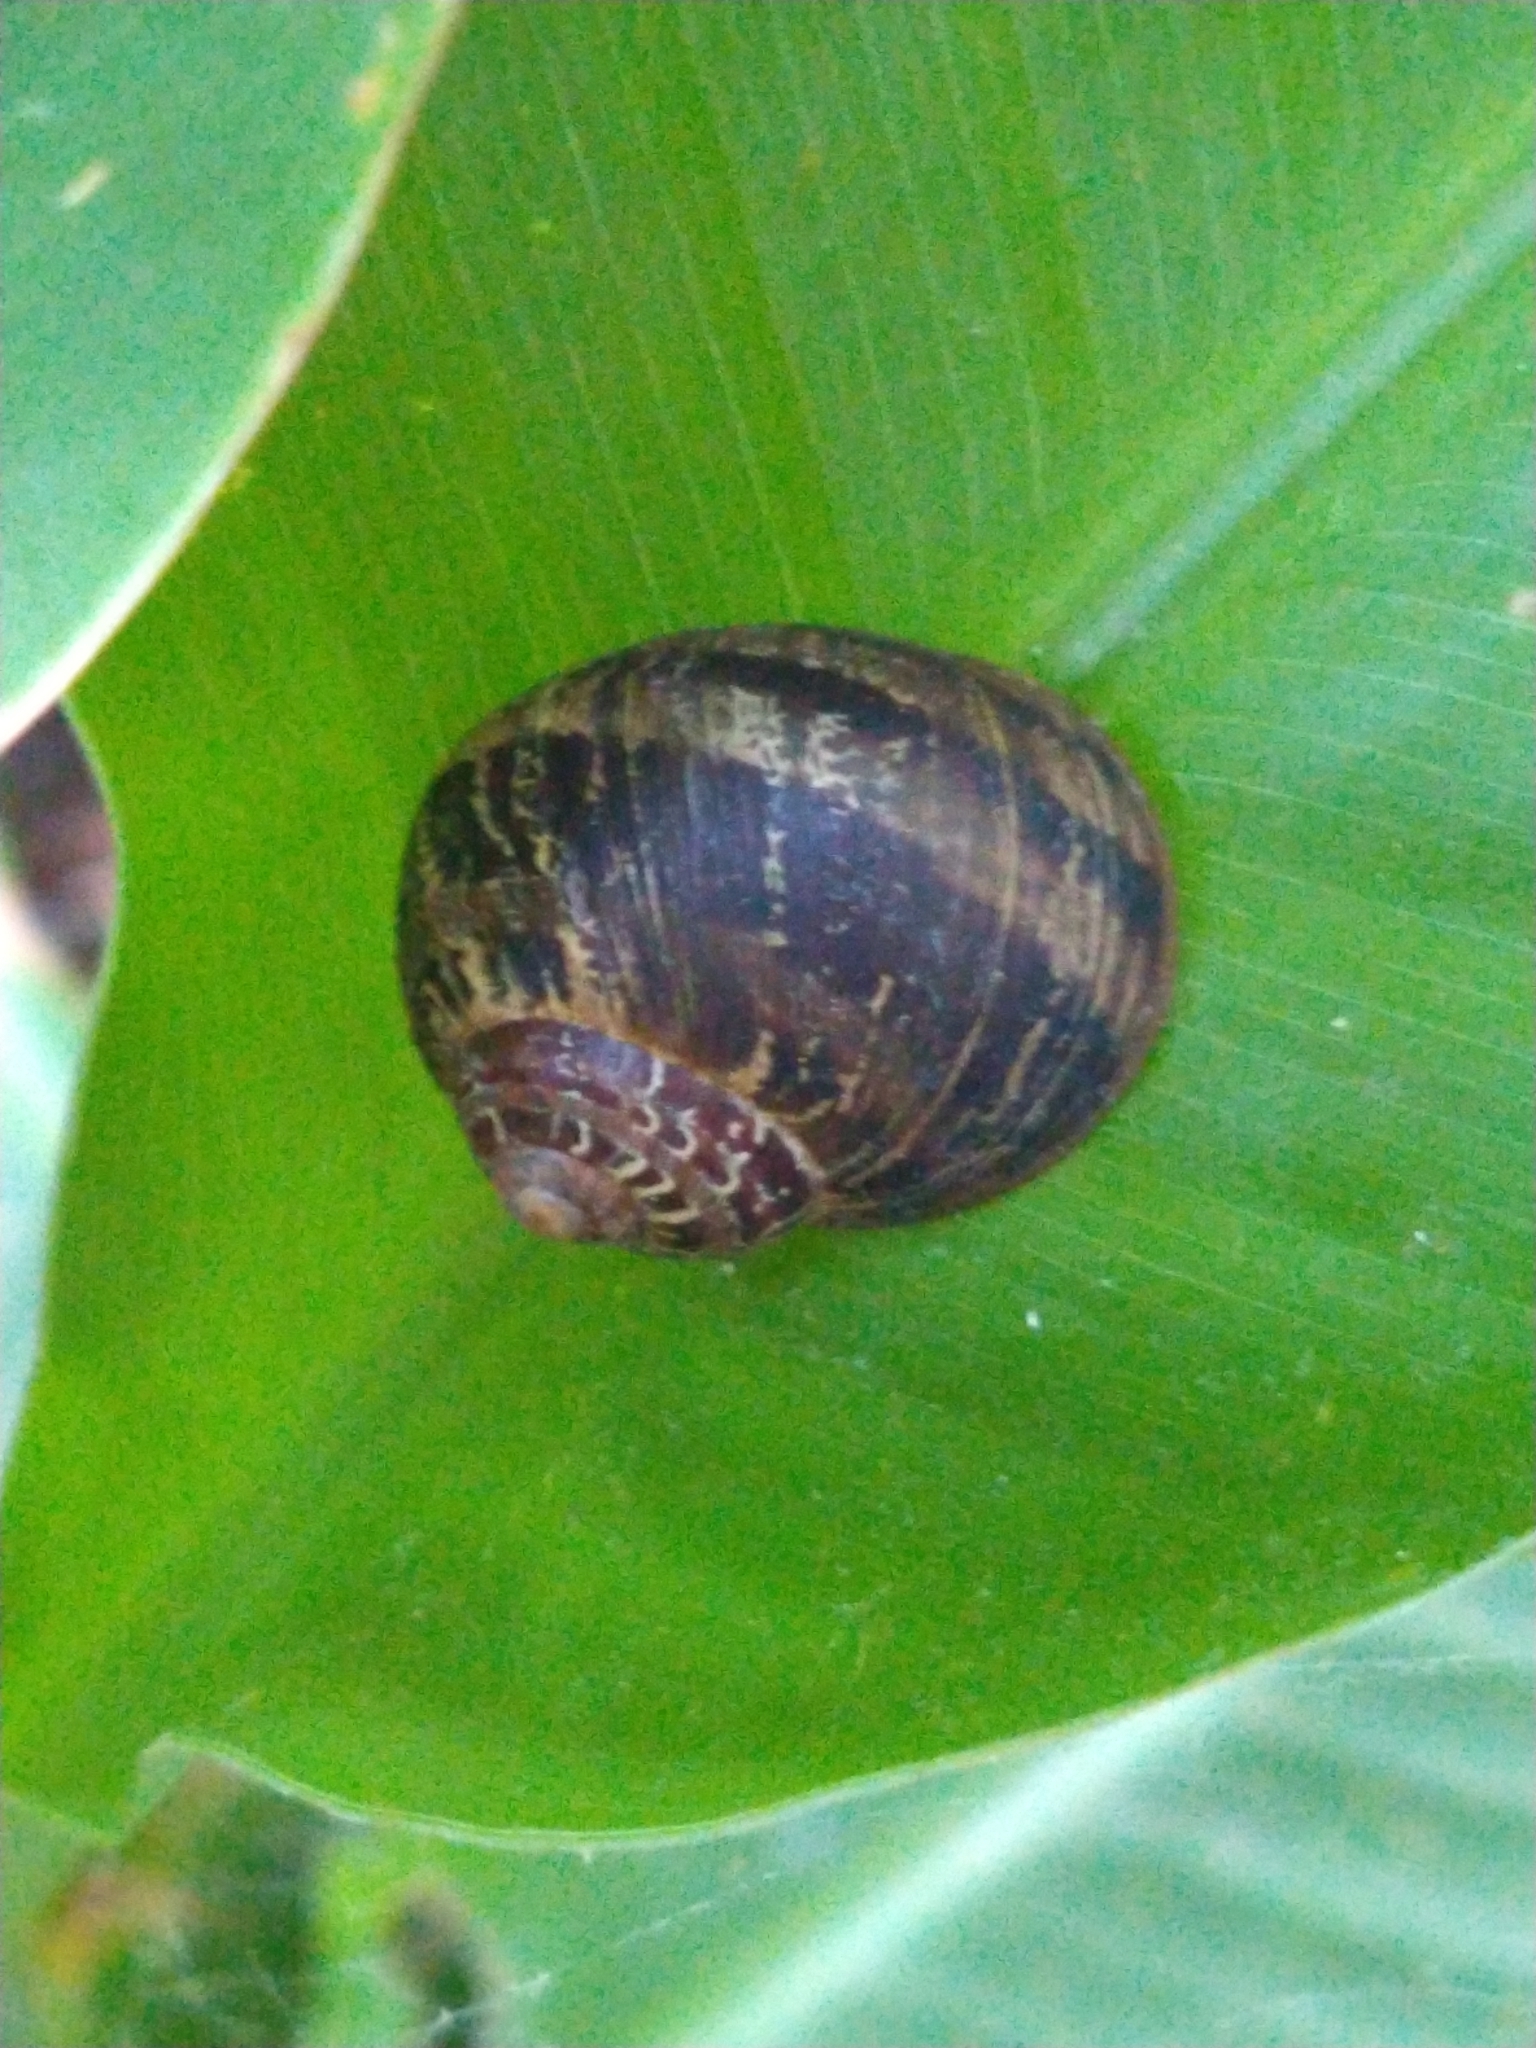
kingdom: Animalia
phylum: Mollusca
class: Gastropoda
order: Stylommatophora
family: Helicidae
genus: Cornu
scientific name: Cornu aspersum
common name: Brown garden snail
